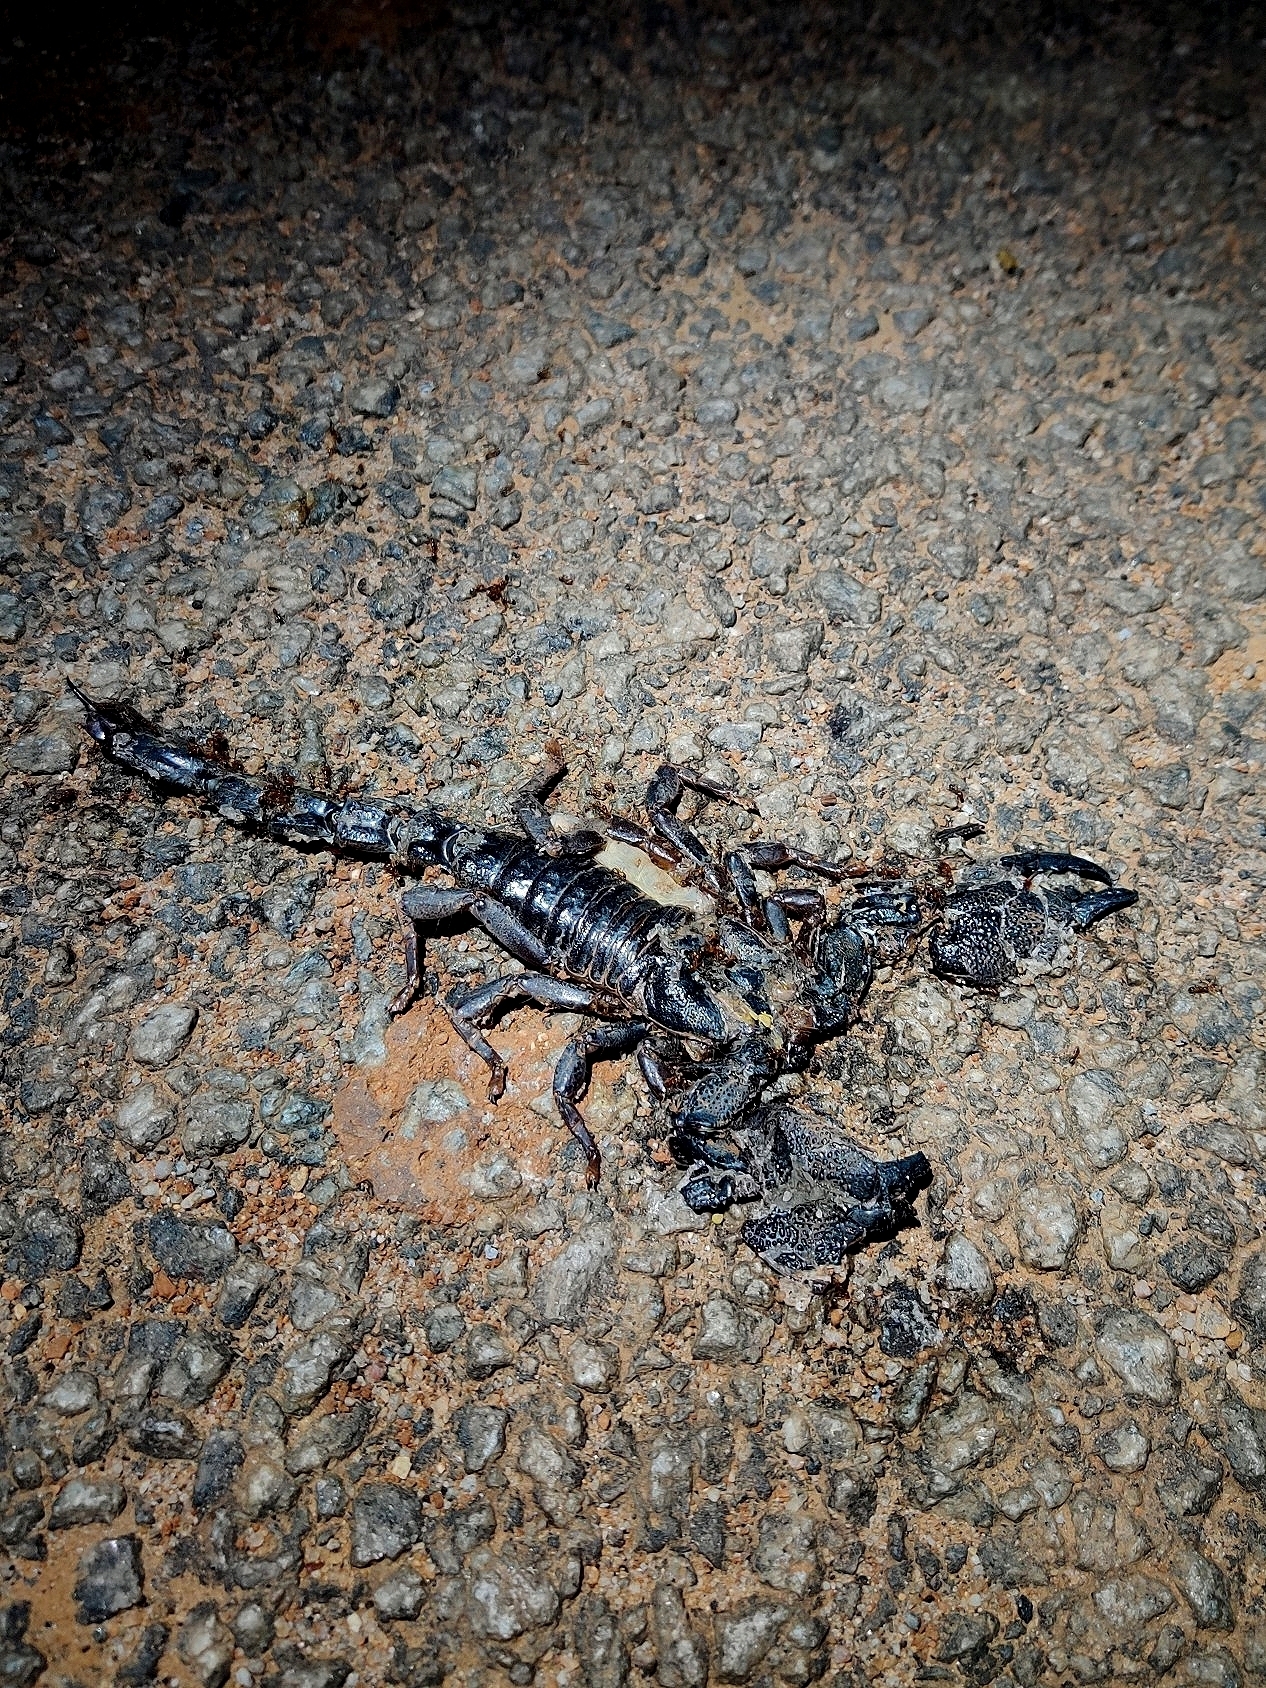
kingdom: Animalia
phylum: Arthropoda
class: Arachnida
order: Scorpiones
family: Scorpionidae
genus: Gigantometrus
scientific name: Gigantometrus swammerdami
